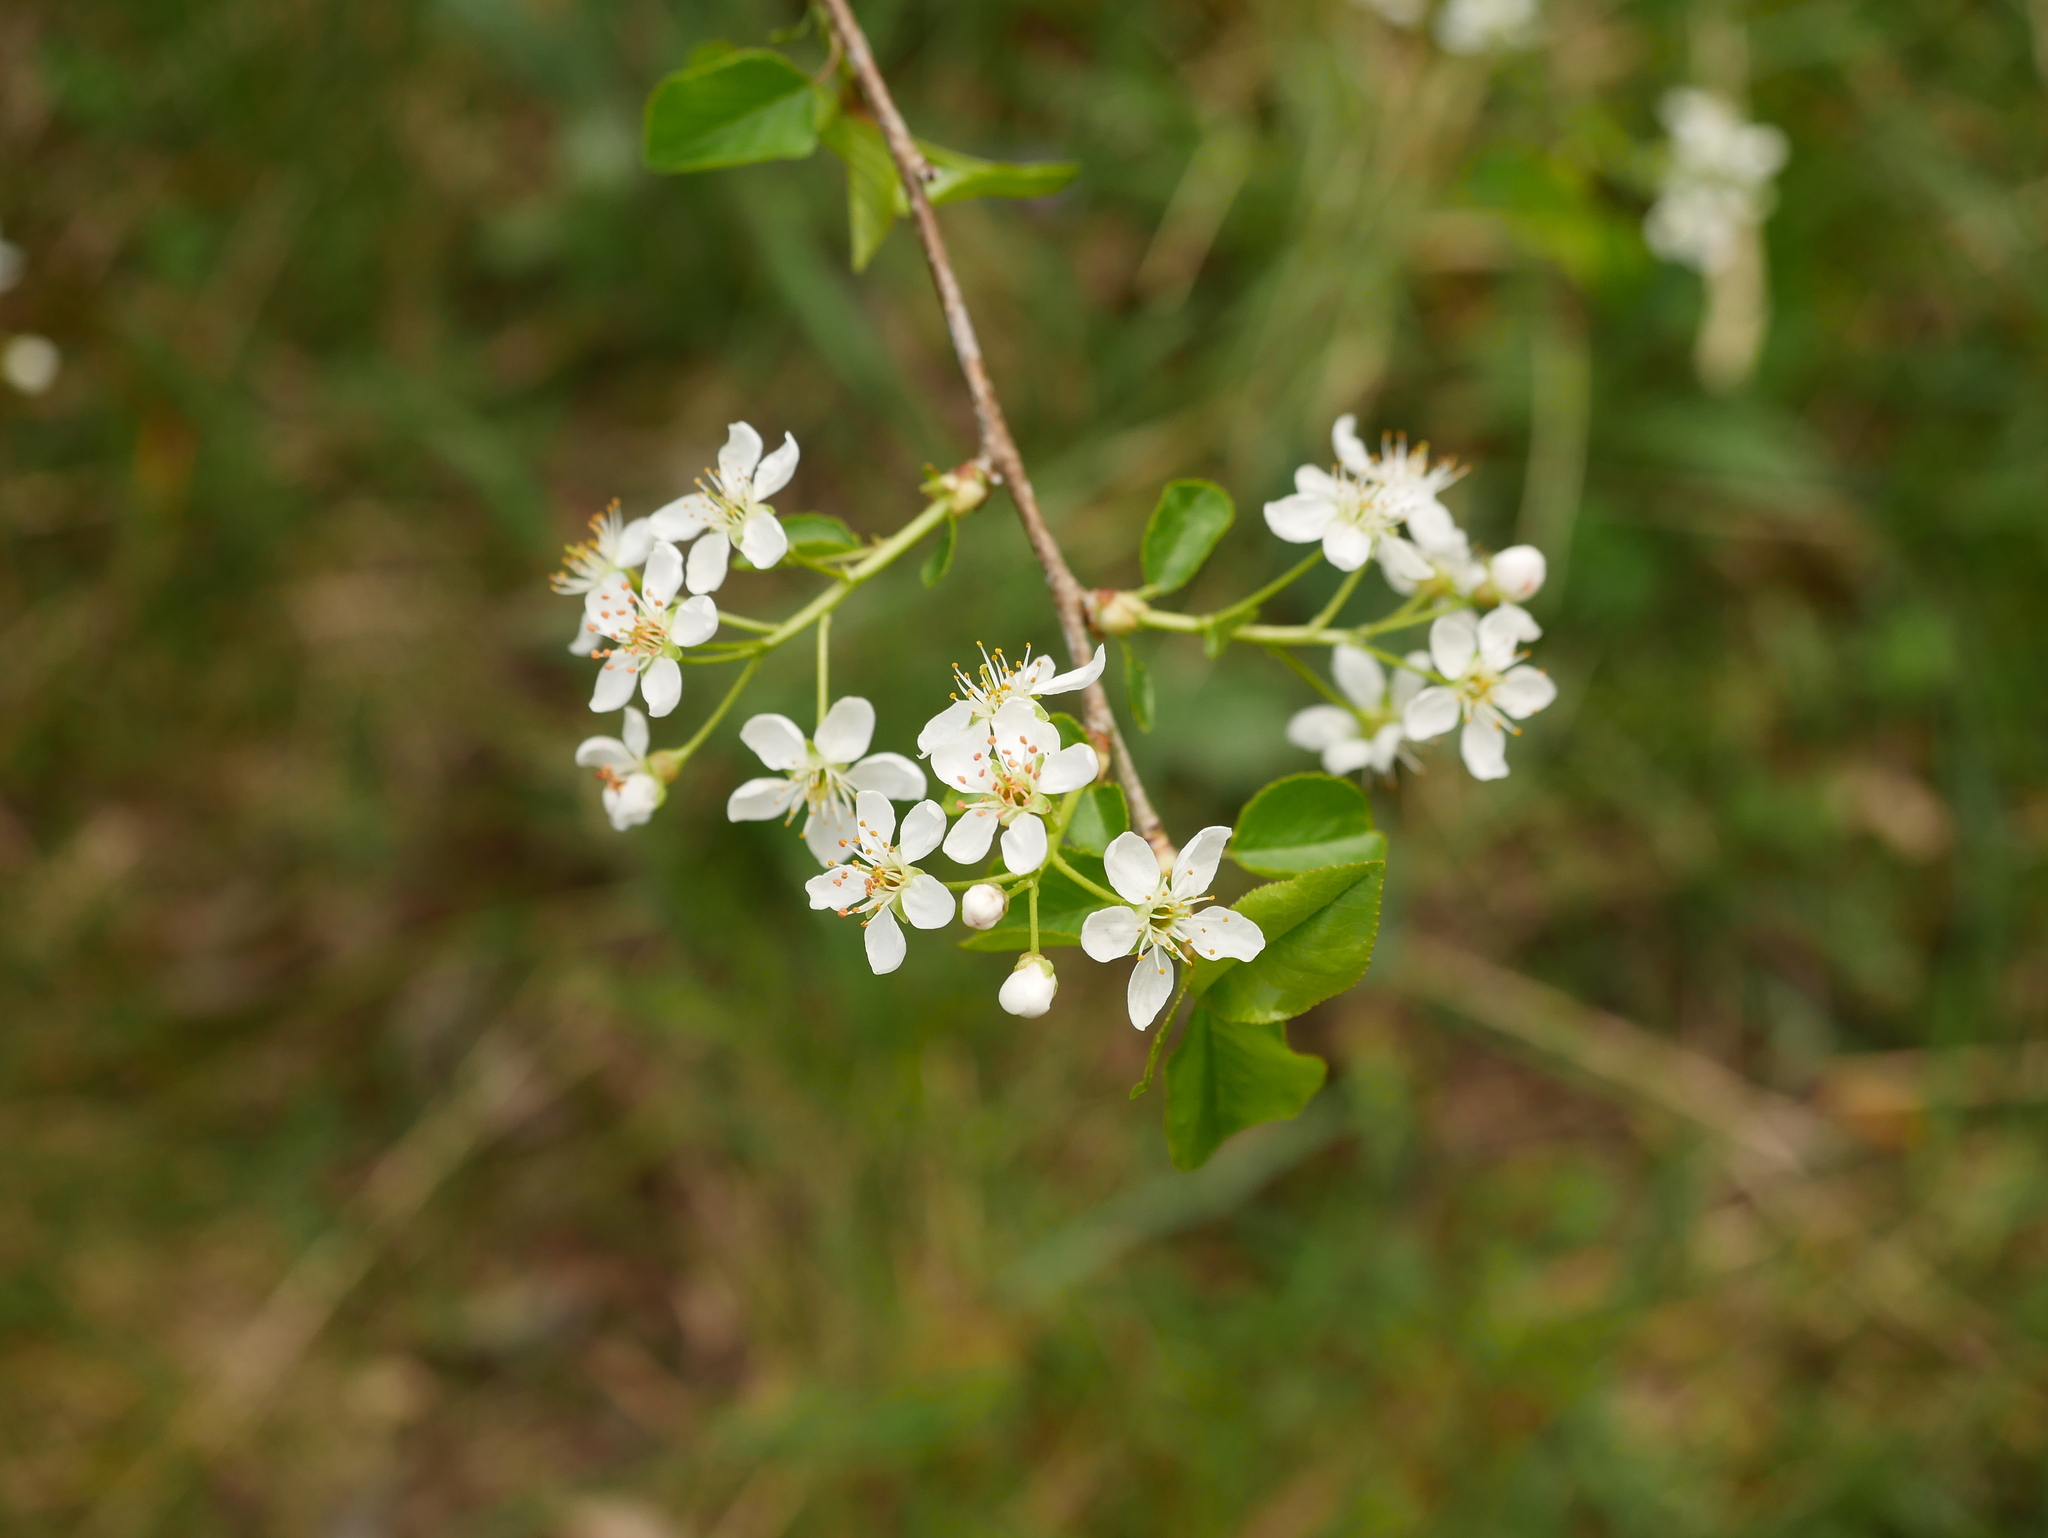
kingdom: Plantae
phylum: Tracheophyta
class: Magnoliopsida
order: Rosales
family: Rosaceae
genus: Prunus
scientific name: Prunus mahaleb
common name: Mahaleb cherry
